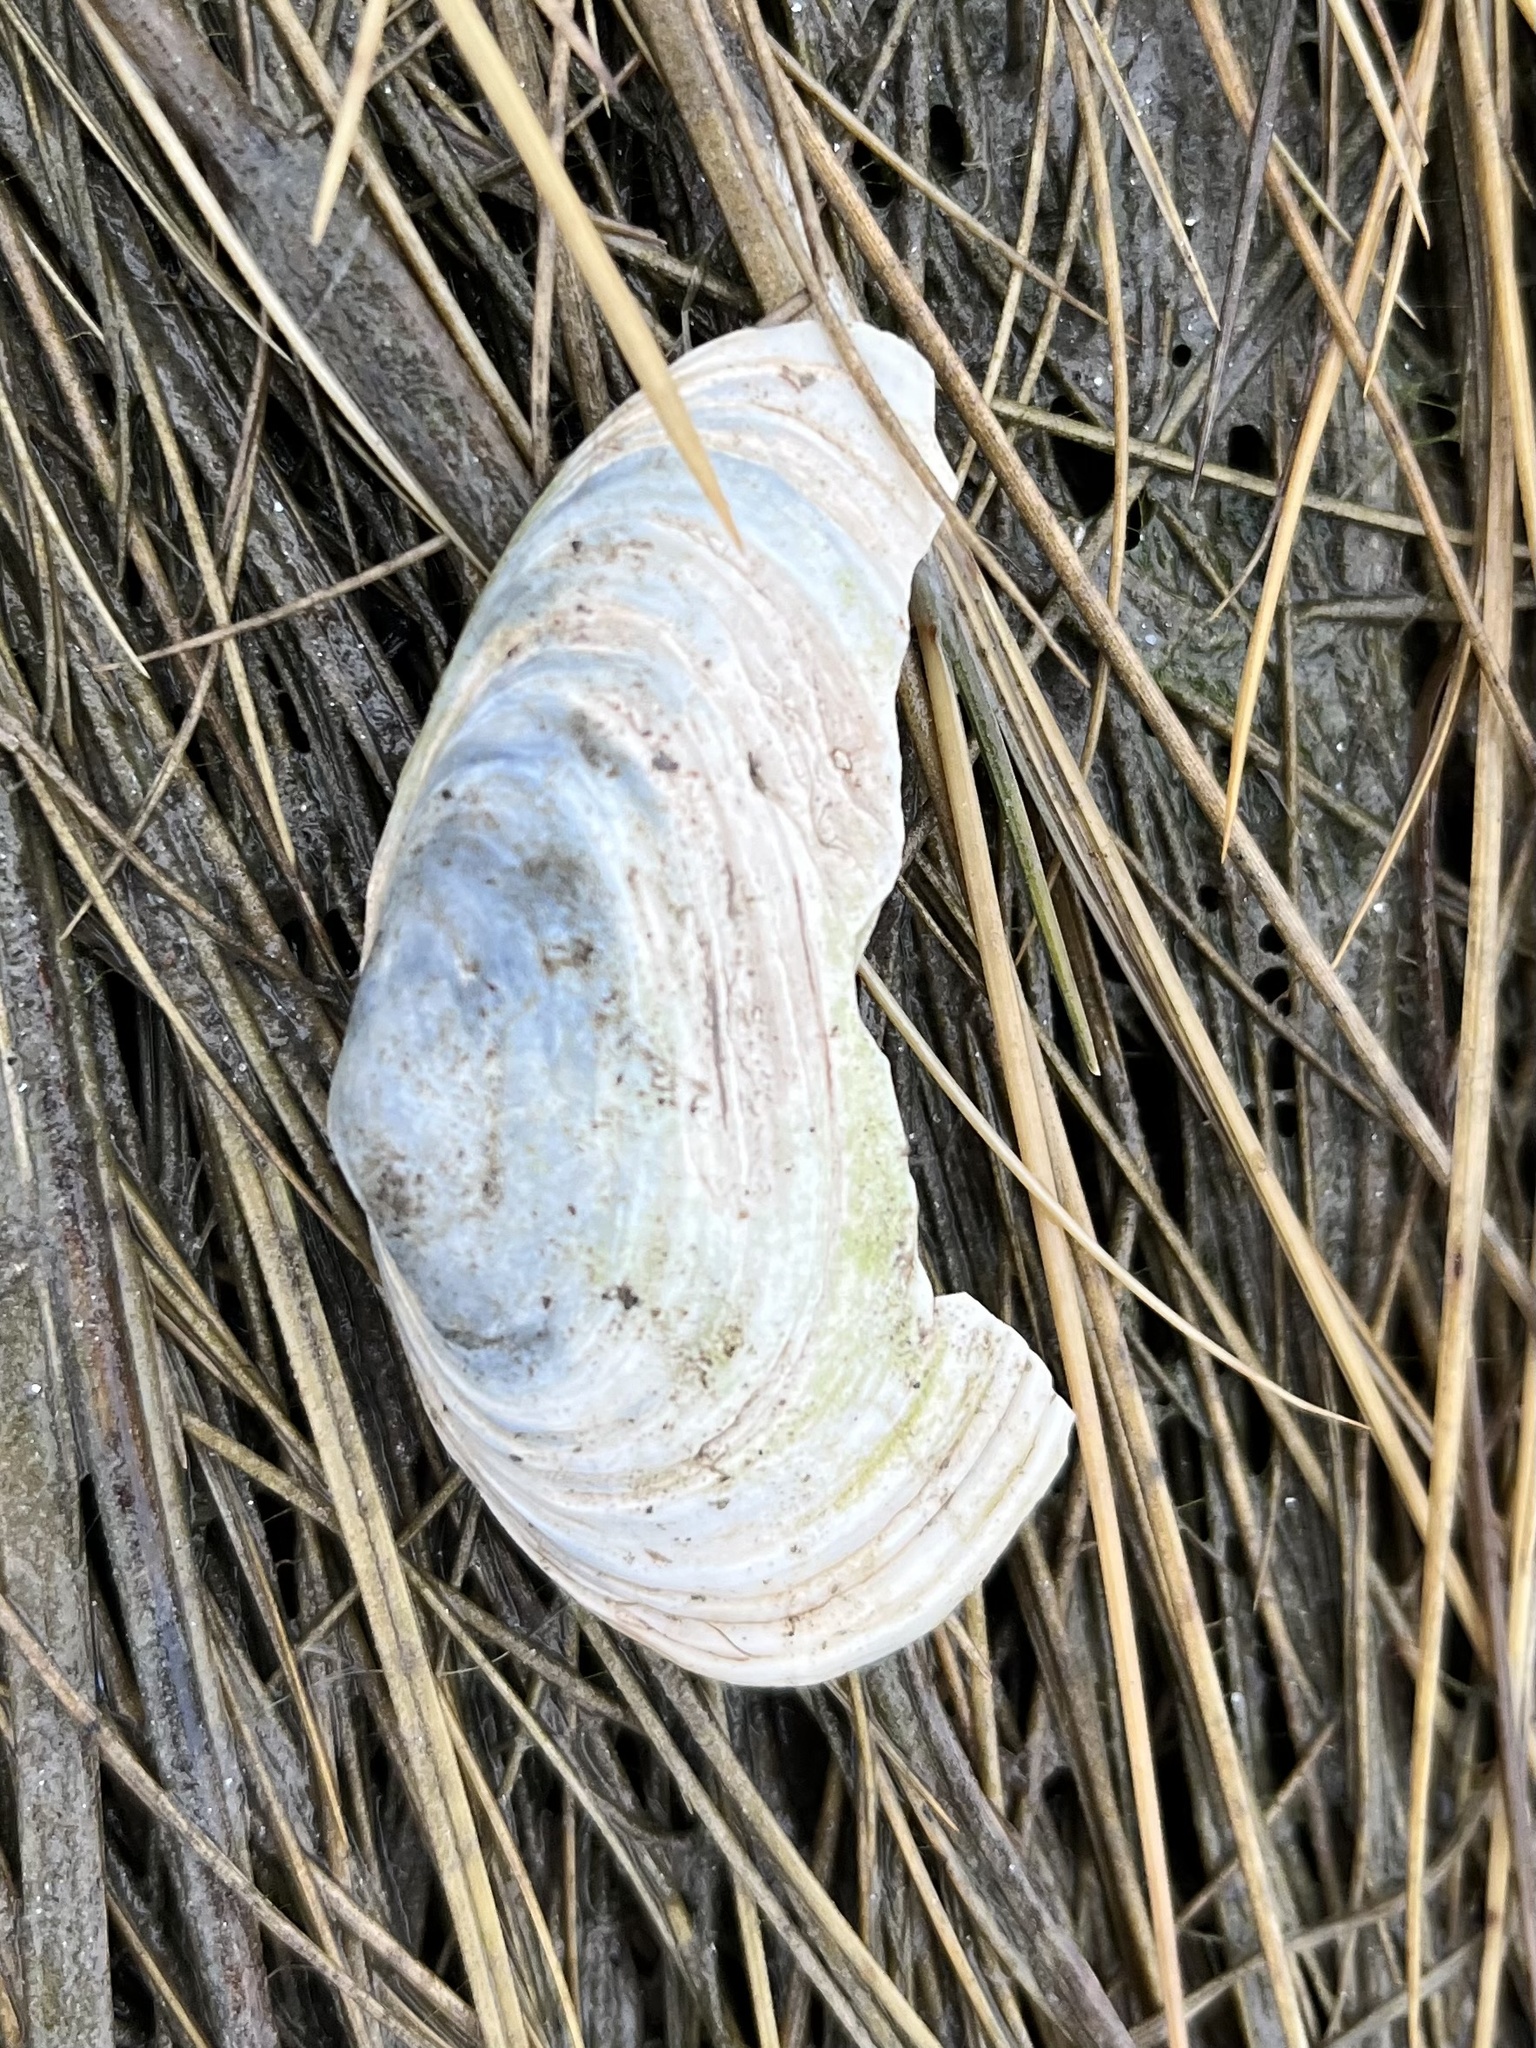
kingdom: Animalia
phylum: Mollusca
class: Bivalvia
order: Myida
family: Myidae
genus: Mya
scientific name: Mya arenaria
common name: Soft-shelled clam
